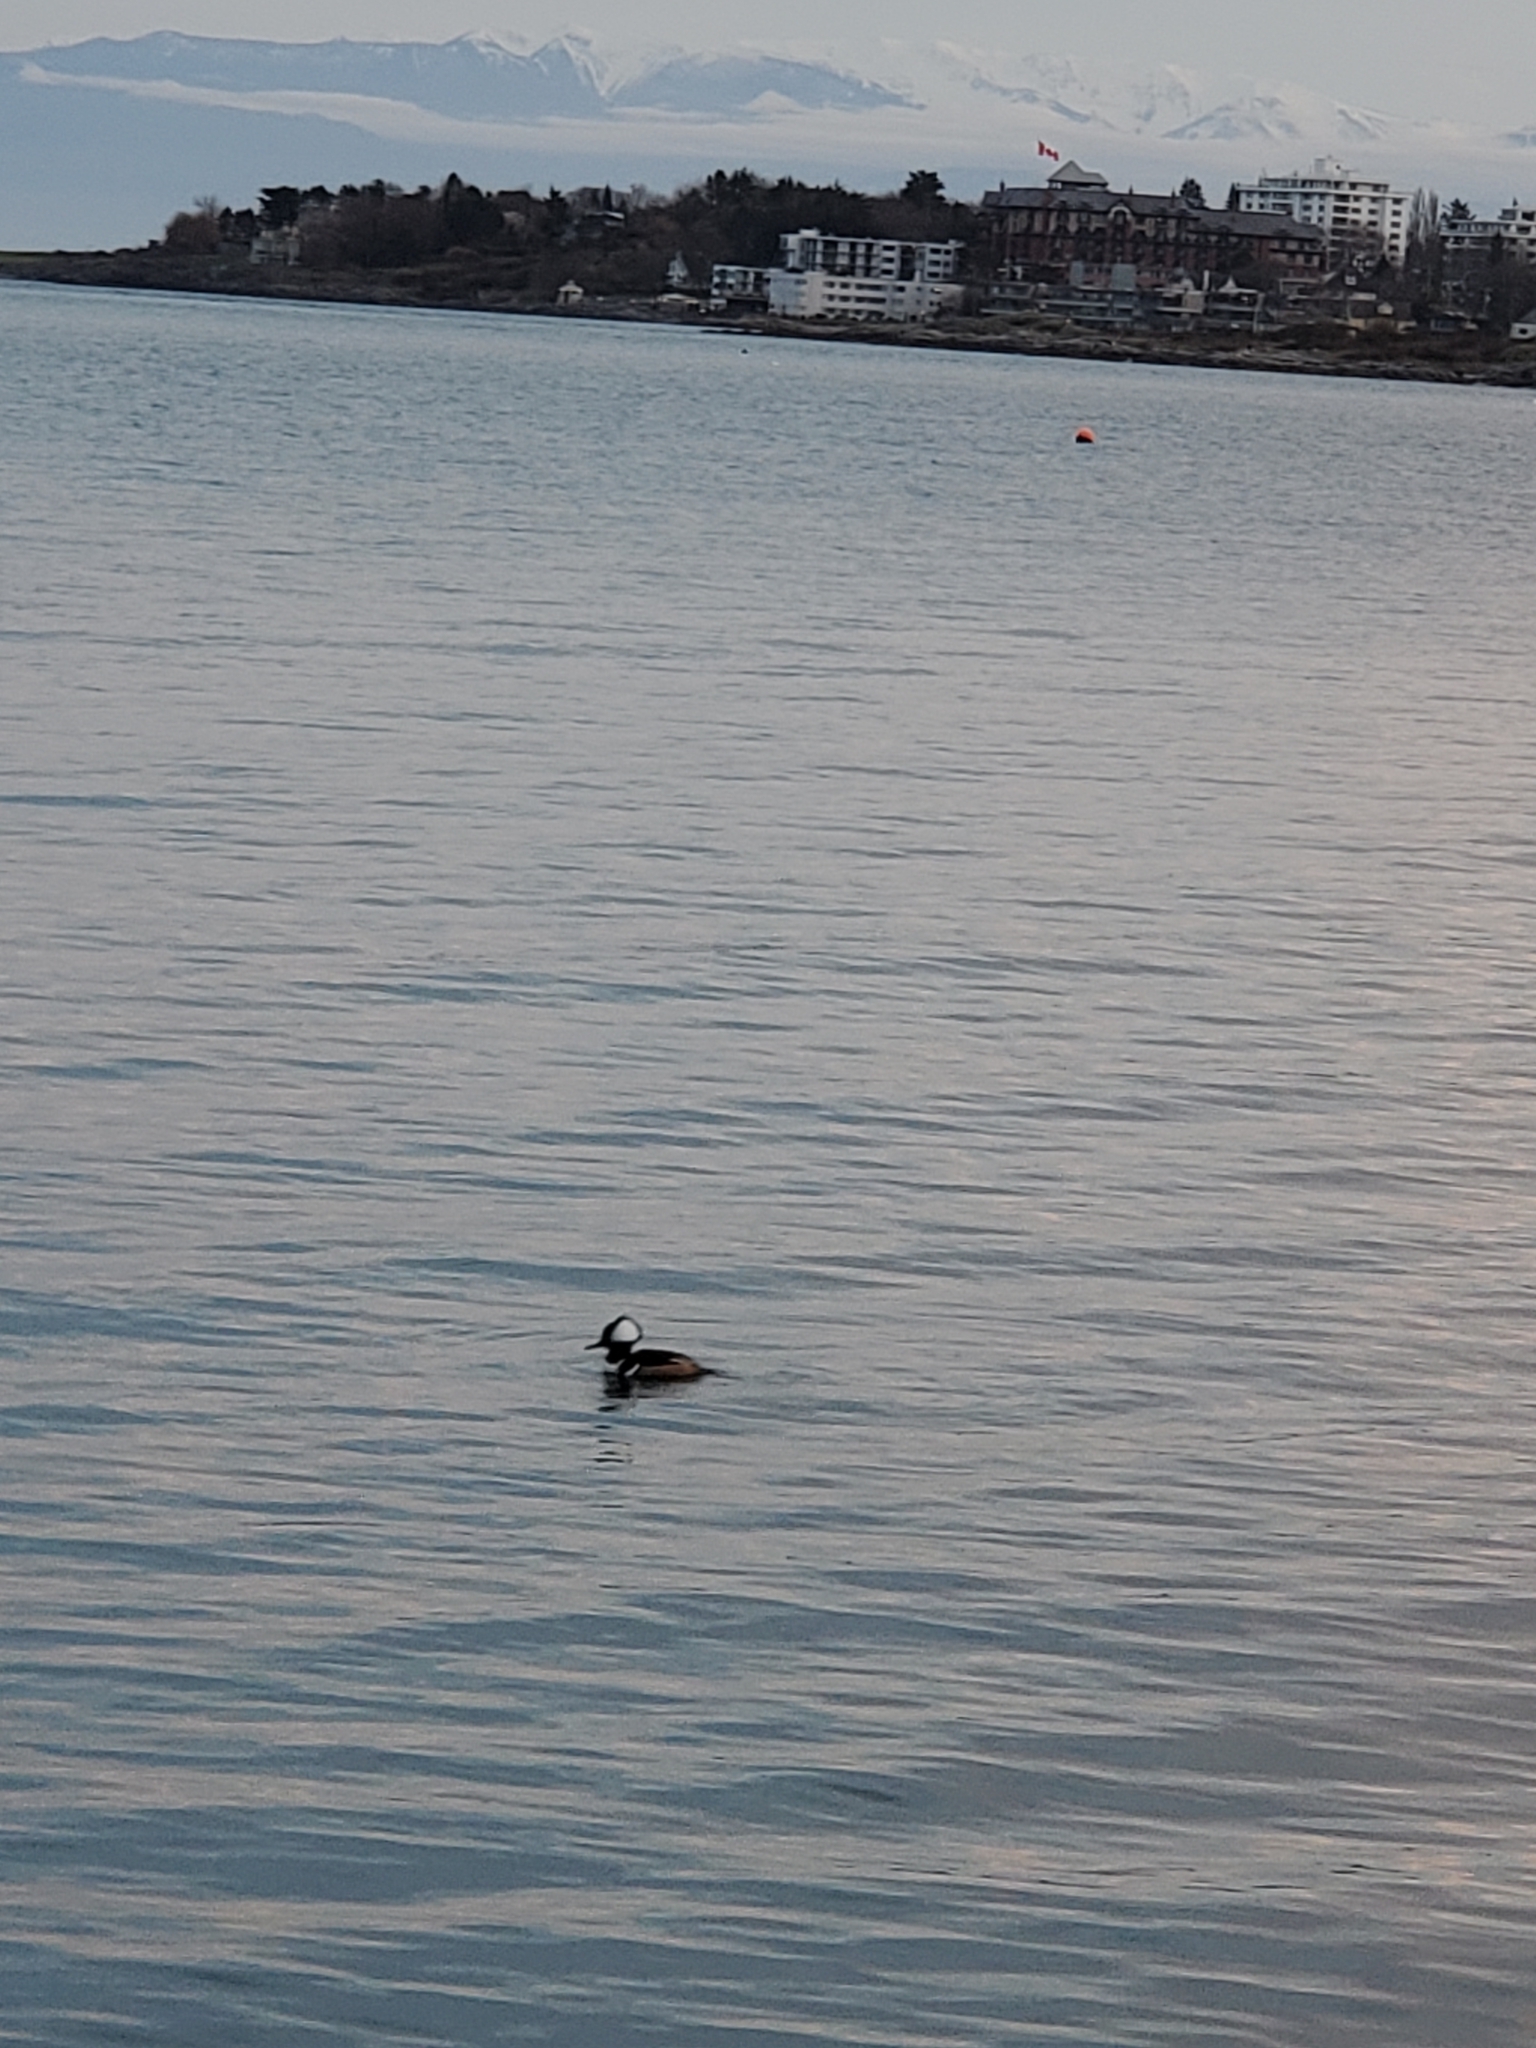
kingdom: Animalia
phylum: Chordata
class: Aves
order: Anseriformes
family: Anatidae
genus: Lophodytes
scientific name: Lophodytes cucullatus
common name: Hooded merganser
